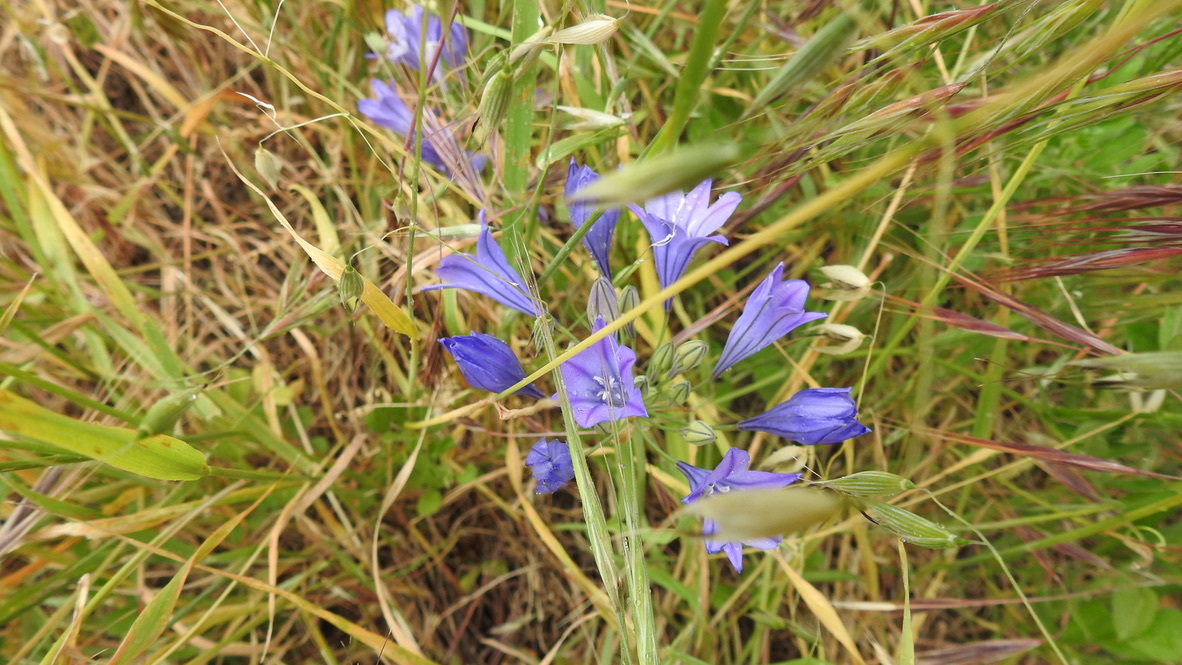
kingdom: Plantae
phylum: Tracheophyta
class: Liliopsida
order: Asparagales
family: Asparagaceae
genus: Triteleia
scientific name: Triteleia laxa
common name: Triplet-lily
